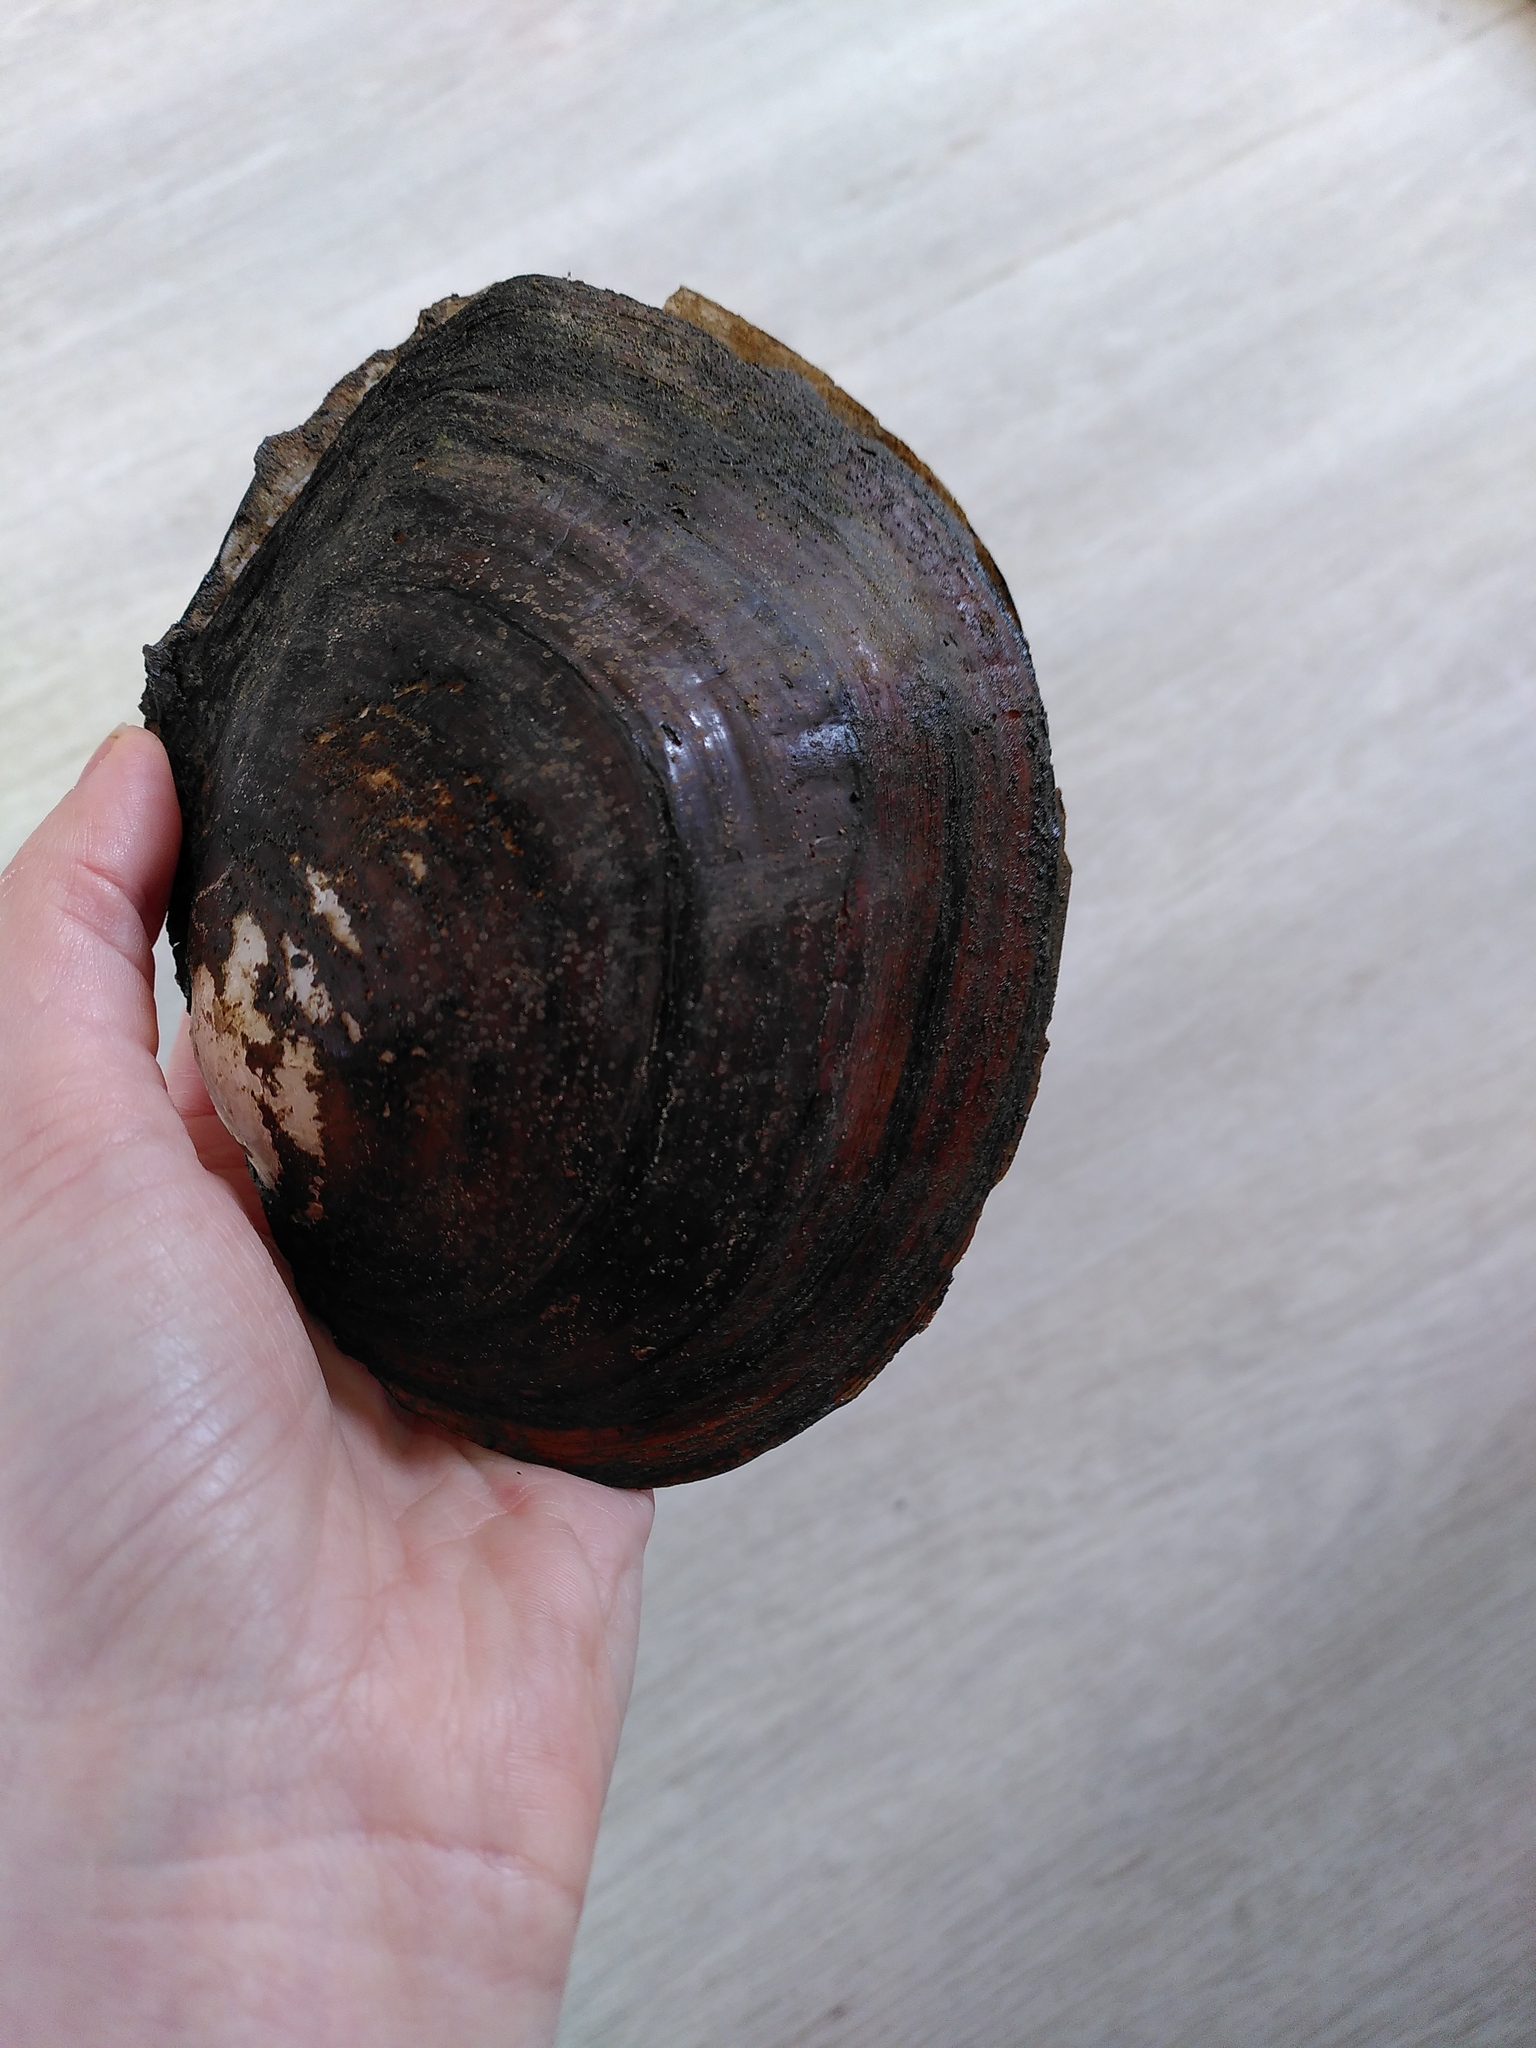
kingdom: Animalia
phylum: Mollusca
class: Bivalvia
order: Unionida
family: Unionidae
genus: Sinanodonta
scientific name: Sinanodonta woodiana
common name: Chinese pond mussel
